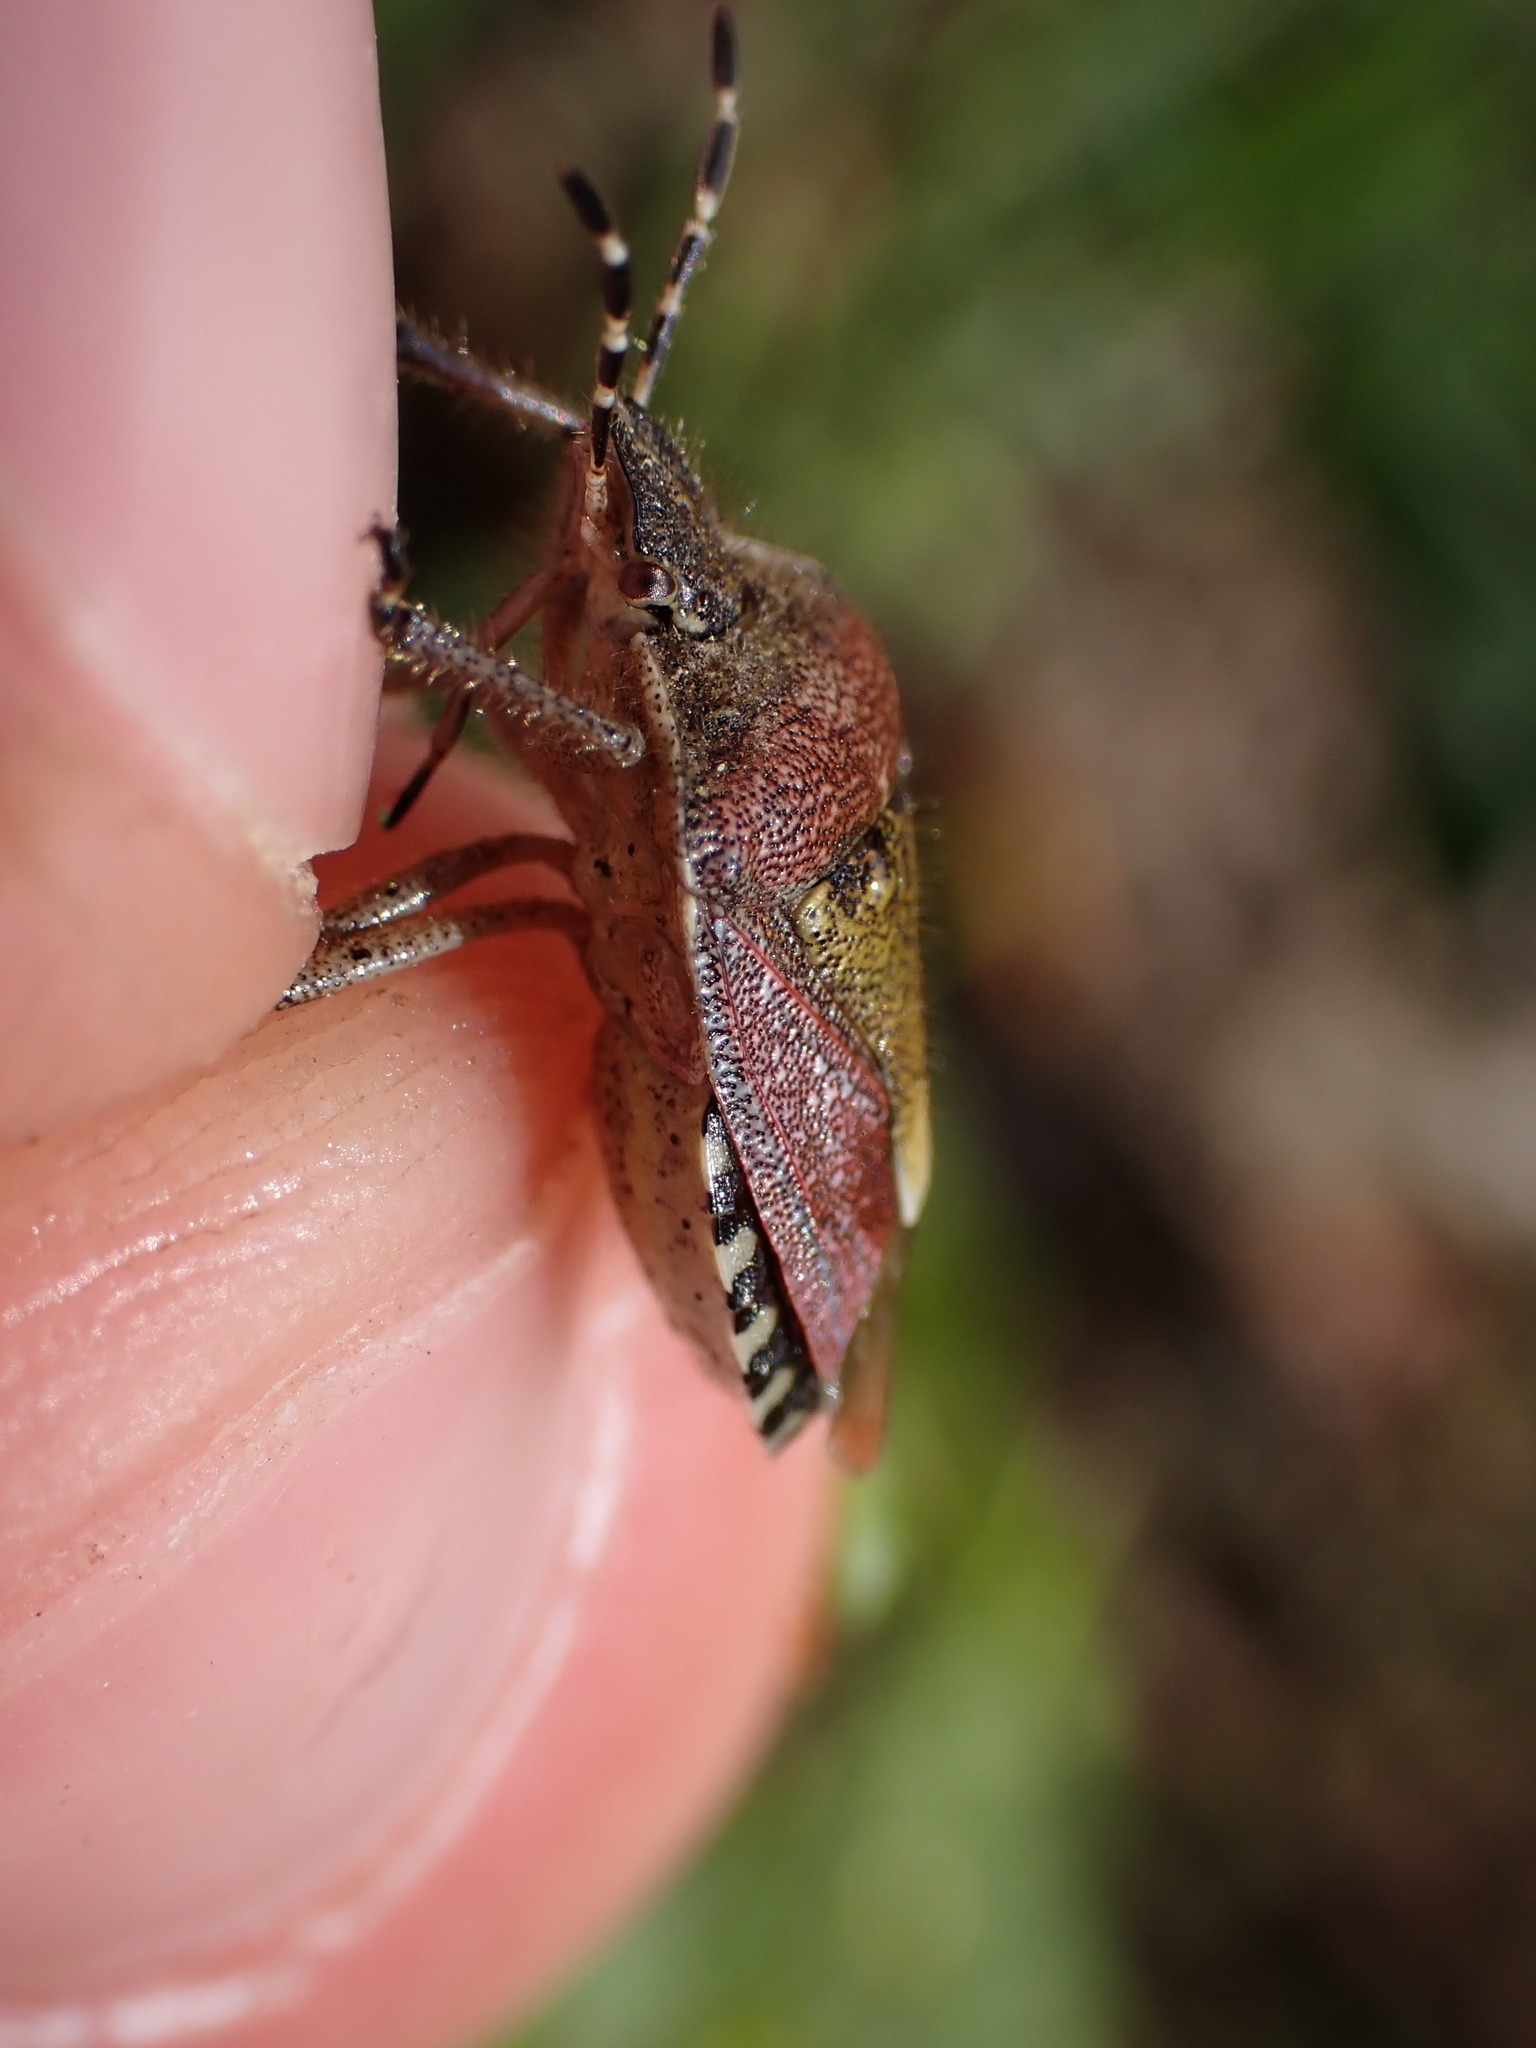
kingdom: Animalia
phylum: Arthropoda
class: Insecta
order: Hemiptera
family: Pentatomidae
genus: Dolycoris
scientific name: Dolycoris baccarum
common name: Sloe bug
